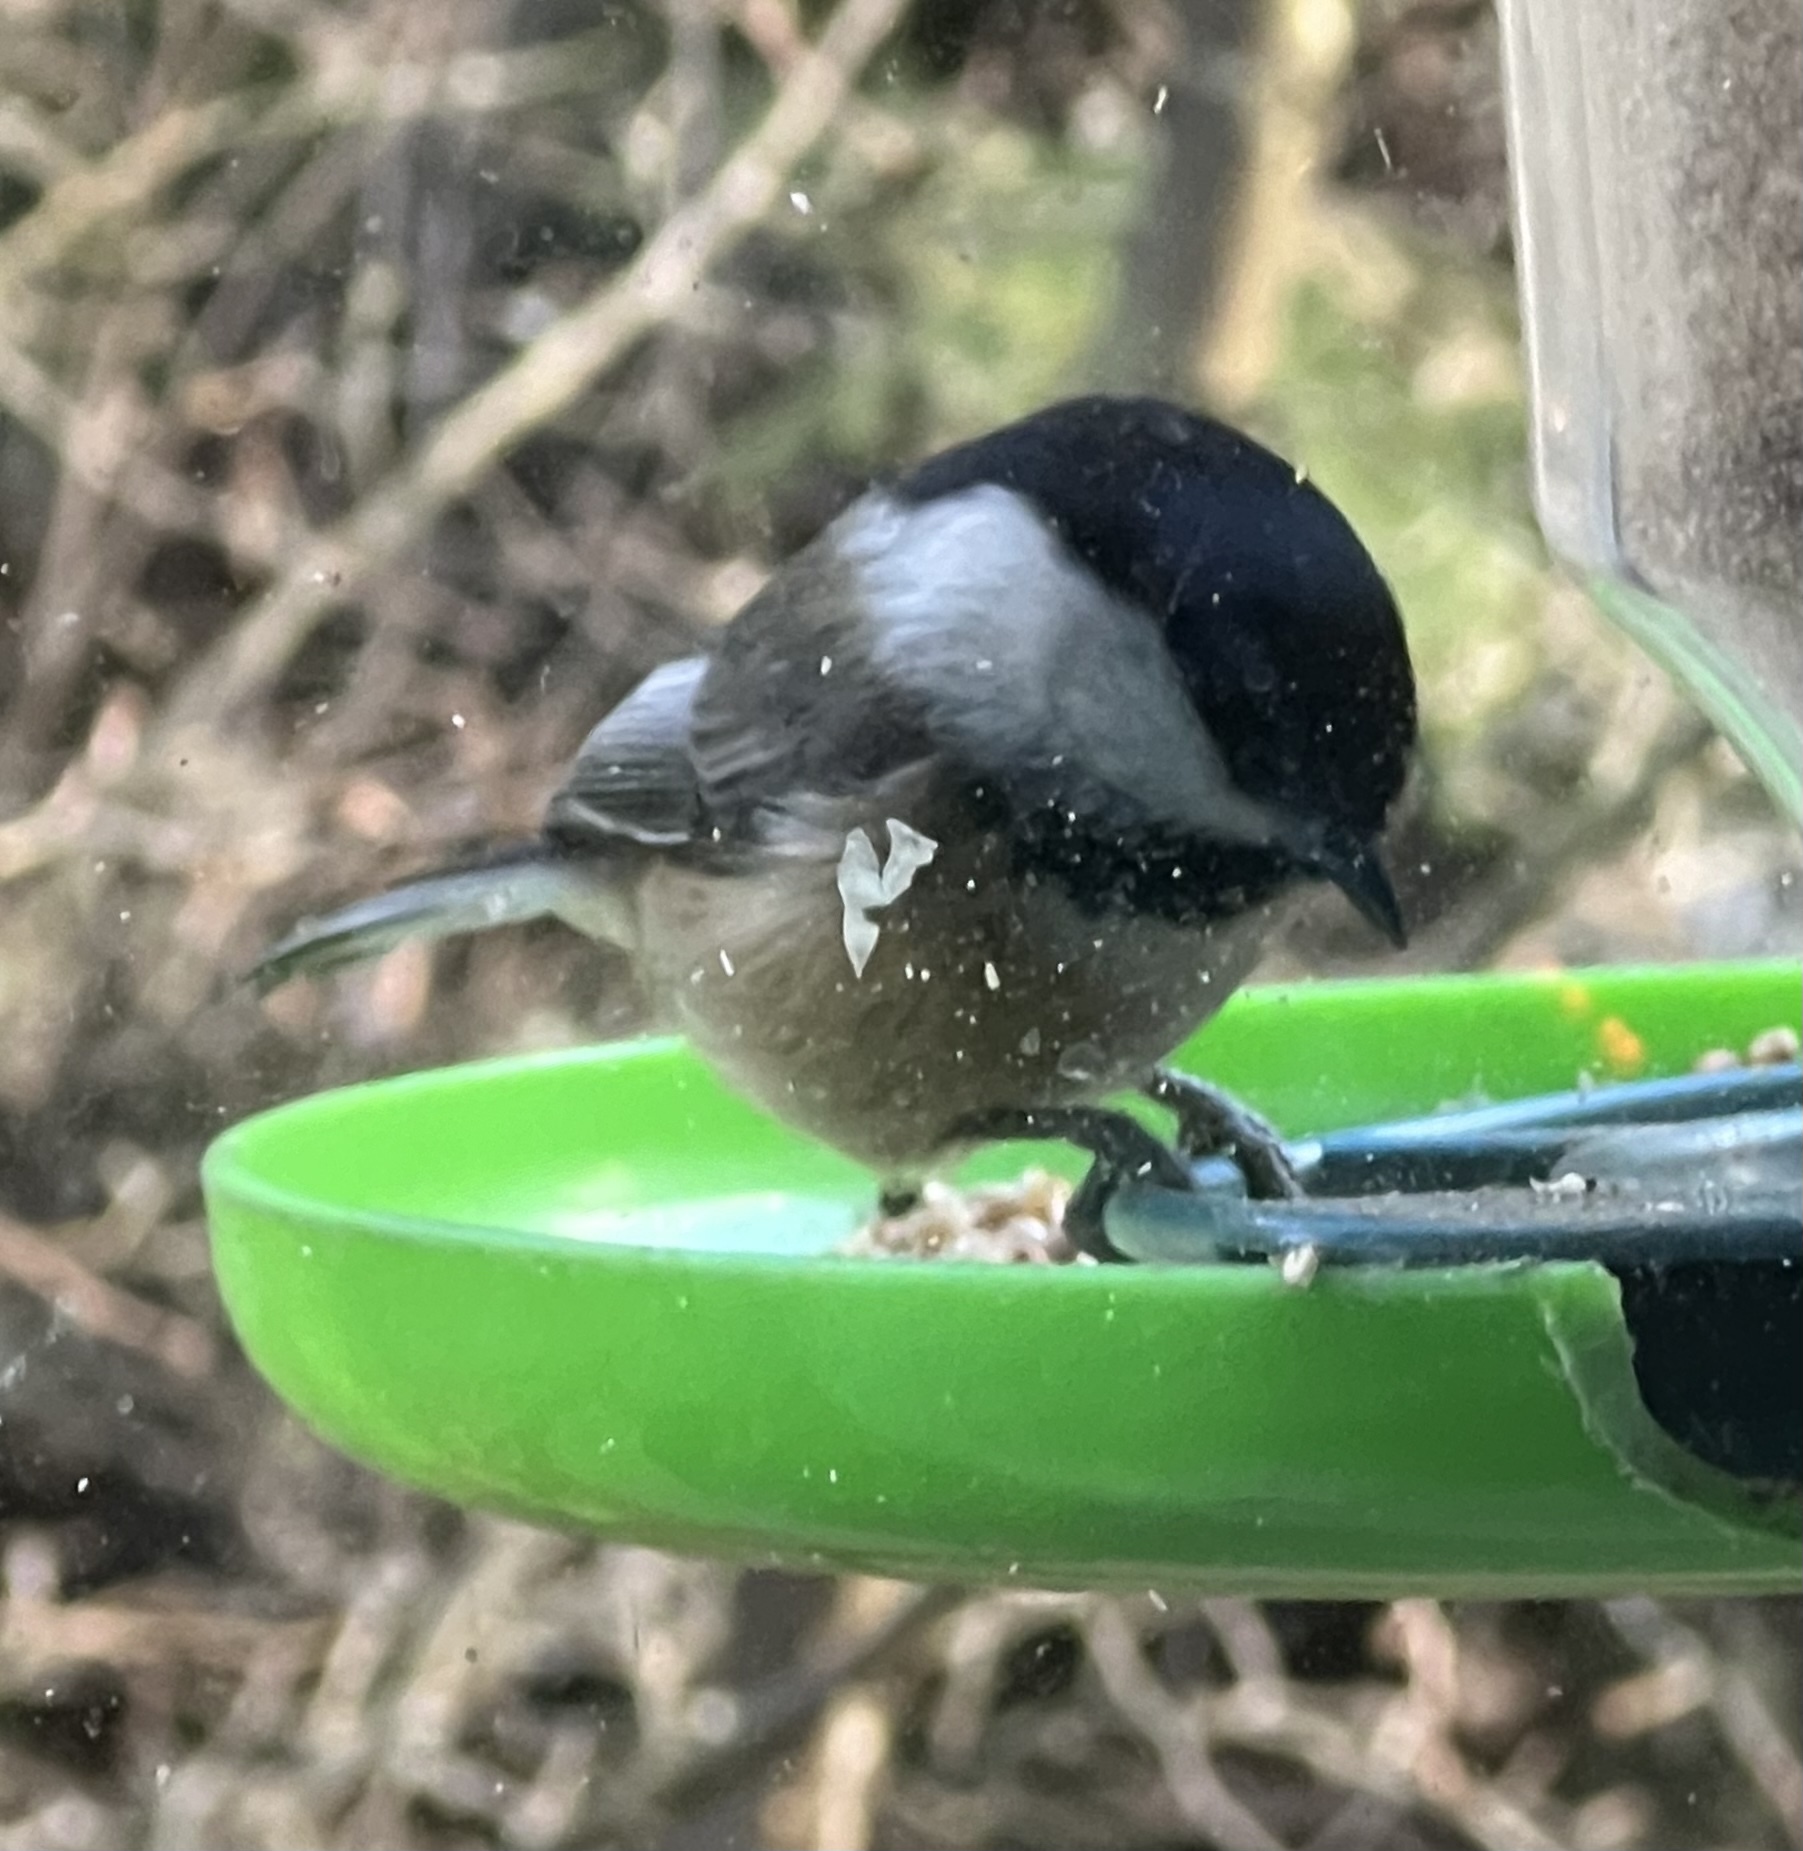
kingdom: Animalia
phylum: Chordata
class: Aves
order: Passeriformes
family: Paridae
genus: Poecile
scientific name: Poecile atricapillus
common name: Black-capped chickadee
